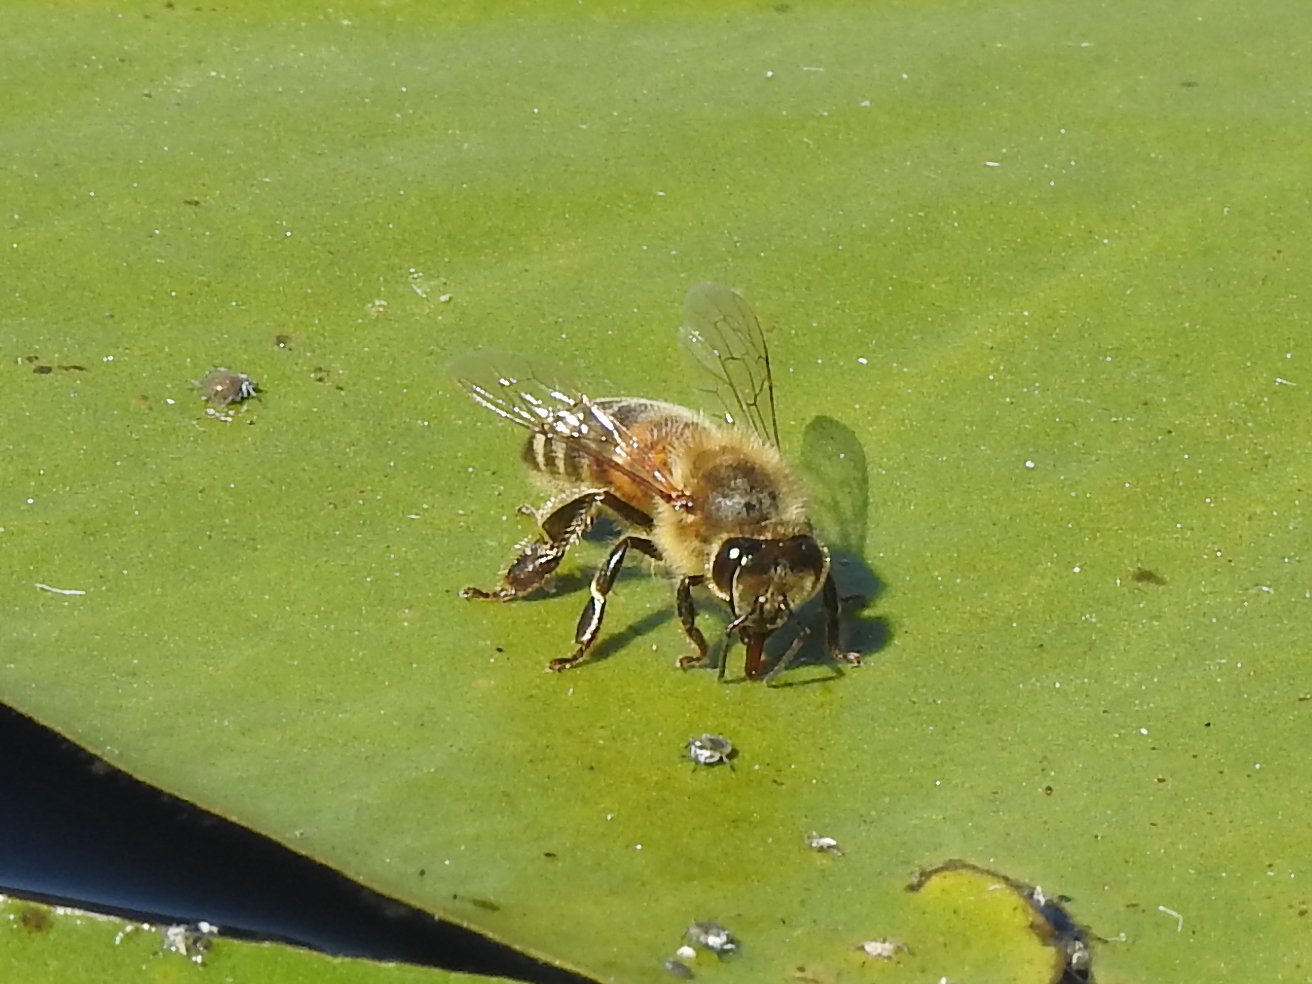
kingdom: Animalia
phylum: Arthropoda
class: Insecta
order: Hymenoptera
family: Apidae
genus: Apis
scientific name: Apis mellifera
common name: Honey bee
